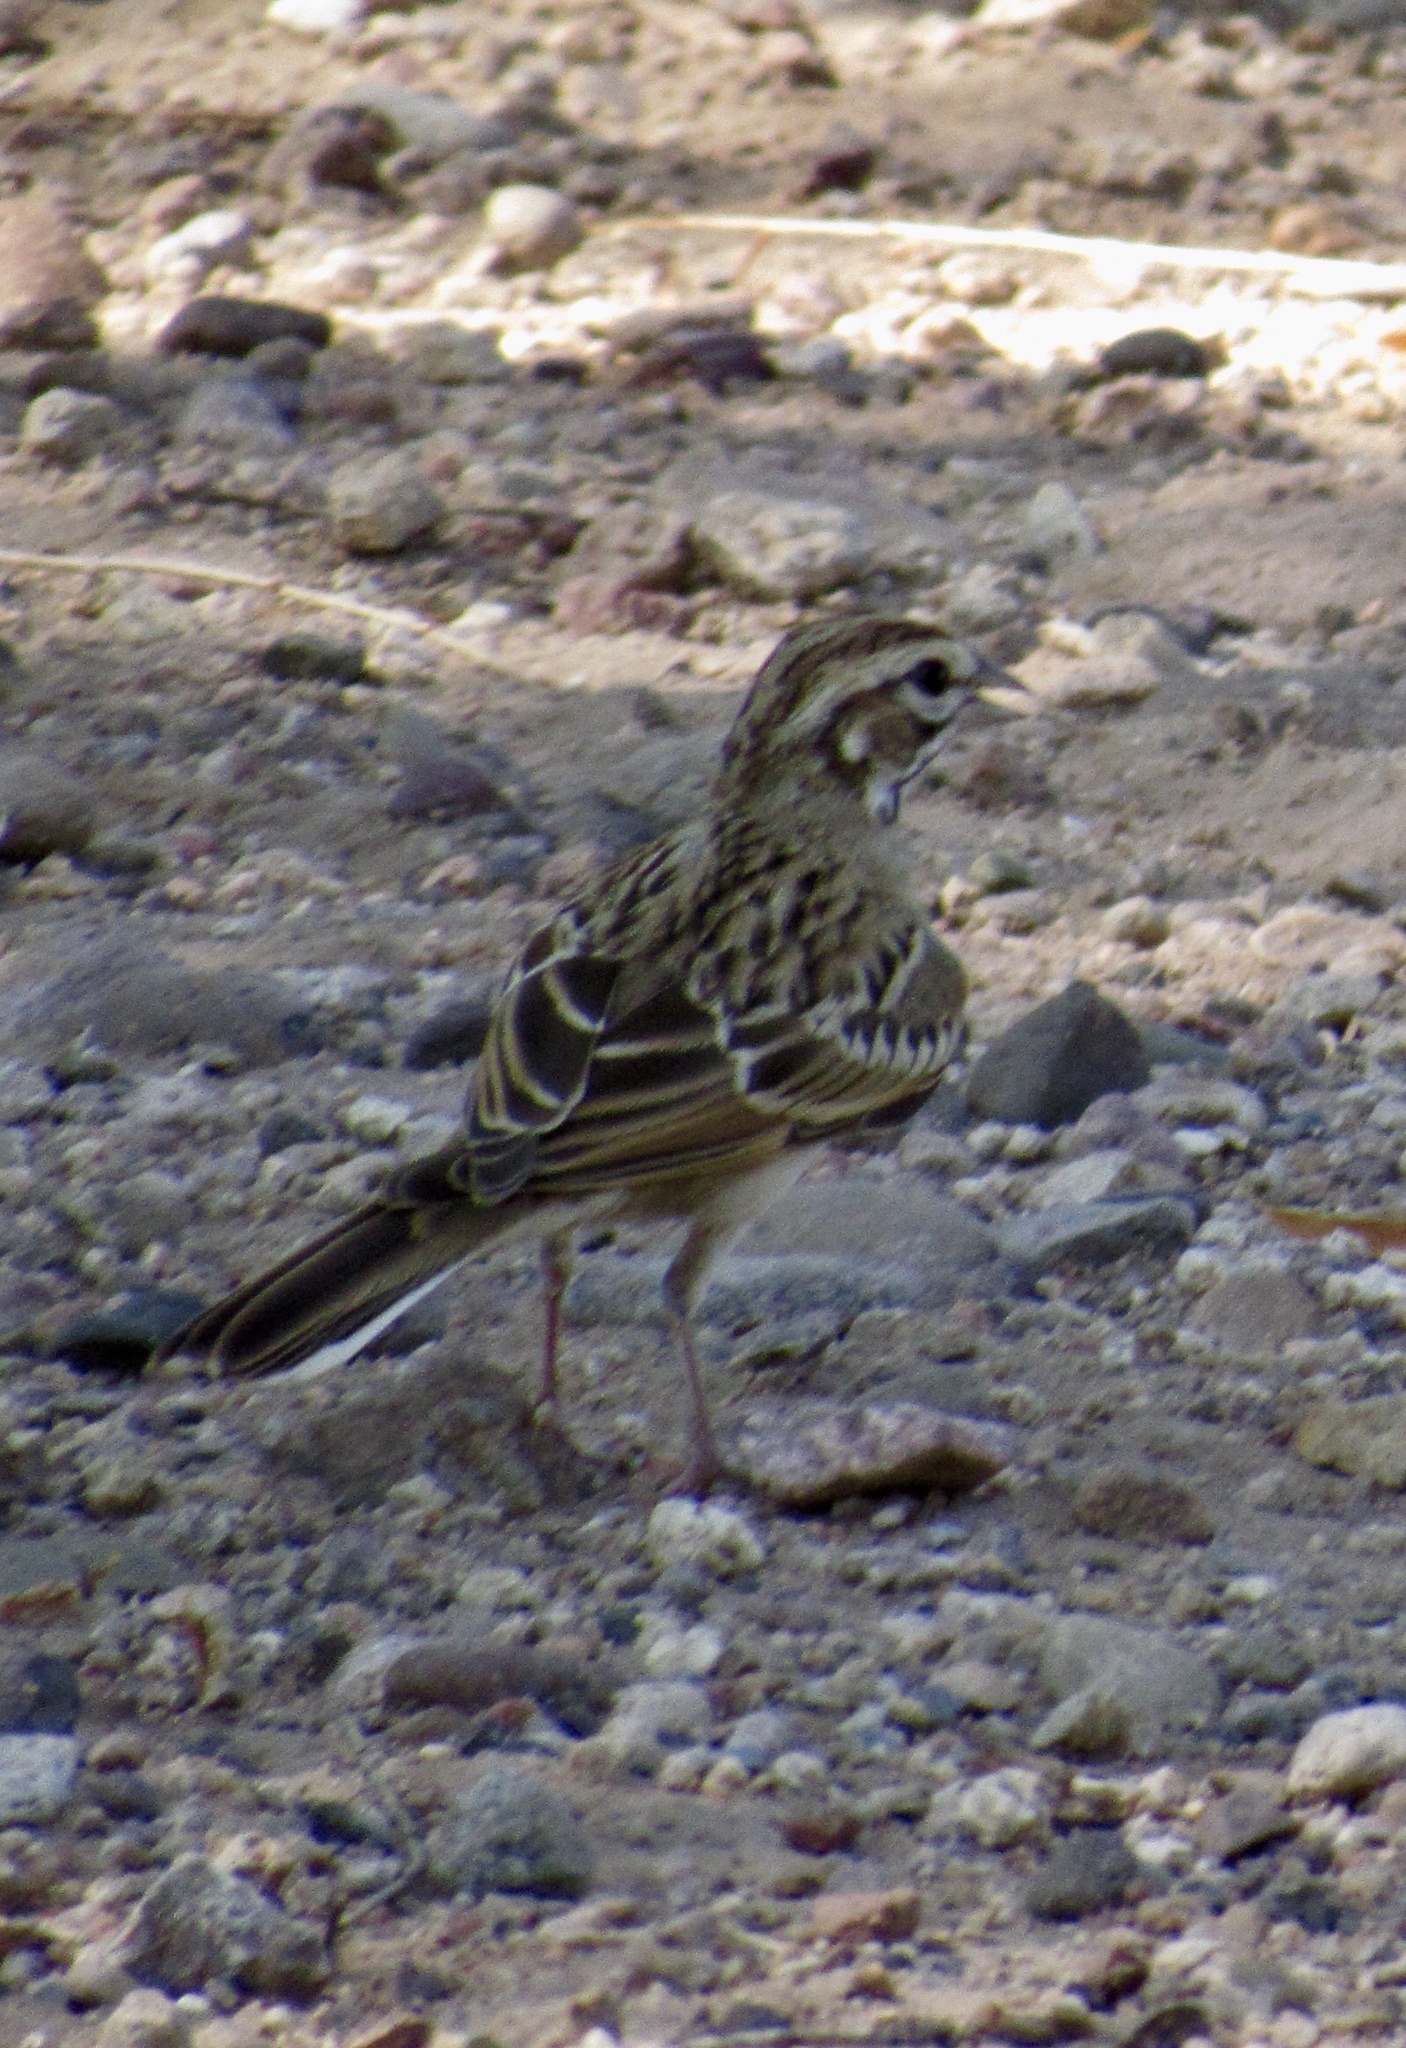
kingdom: Animalia
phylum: Chordata
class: Aves
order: Passeriformes
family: Passerellidae
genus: Chondestes
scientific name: Chondestes grammacus
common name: Lark sparrow
